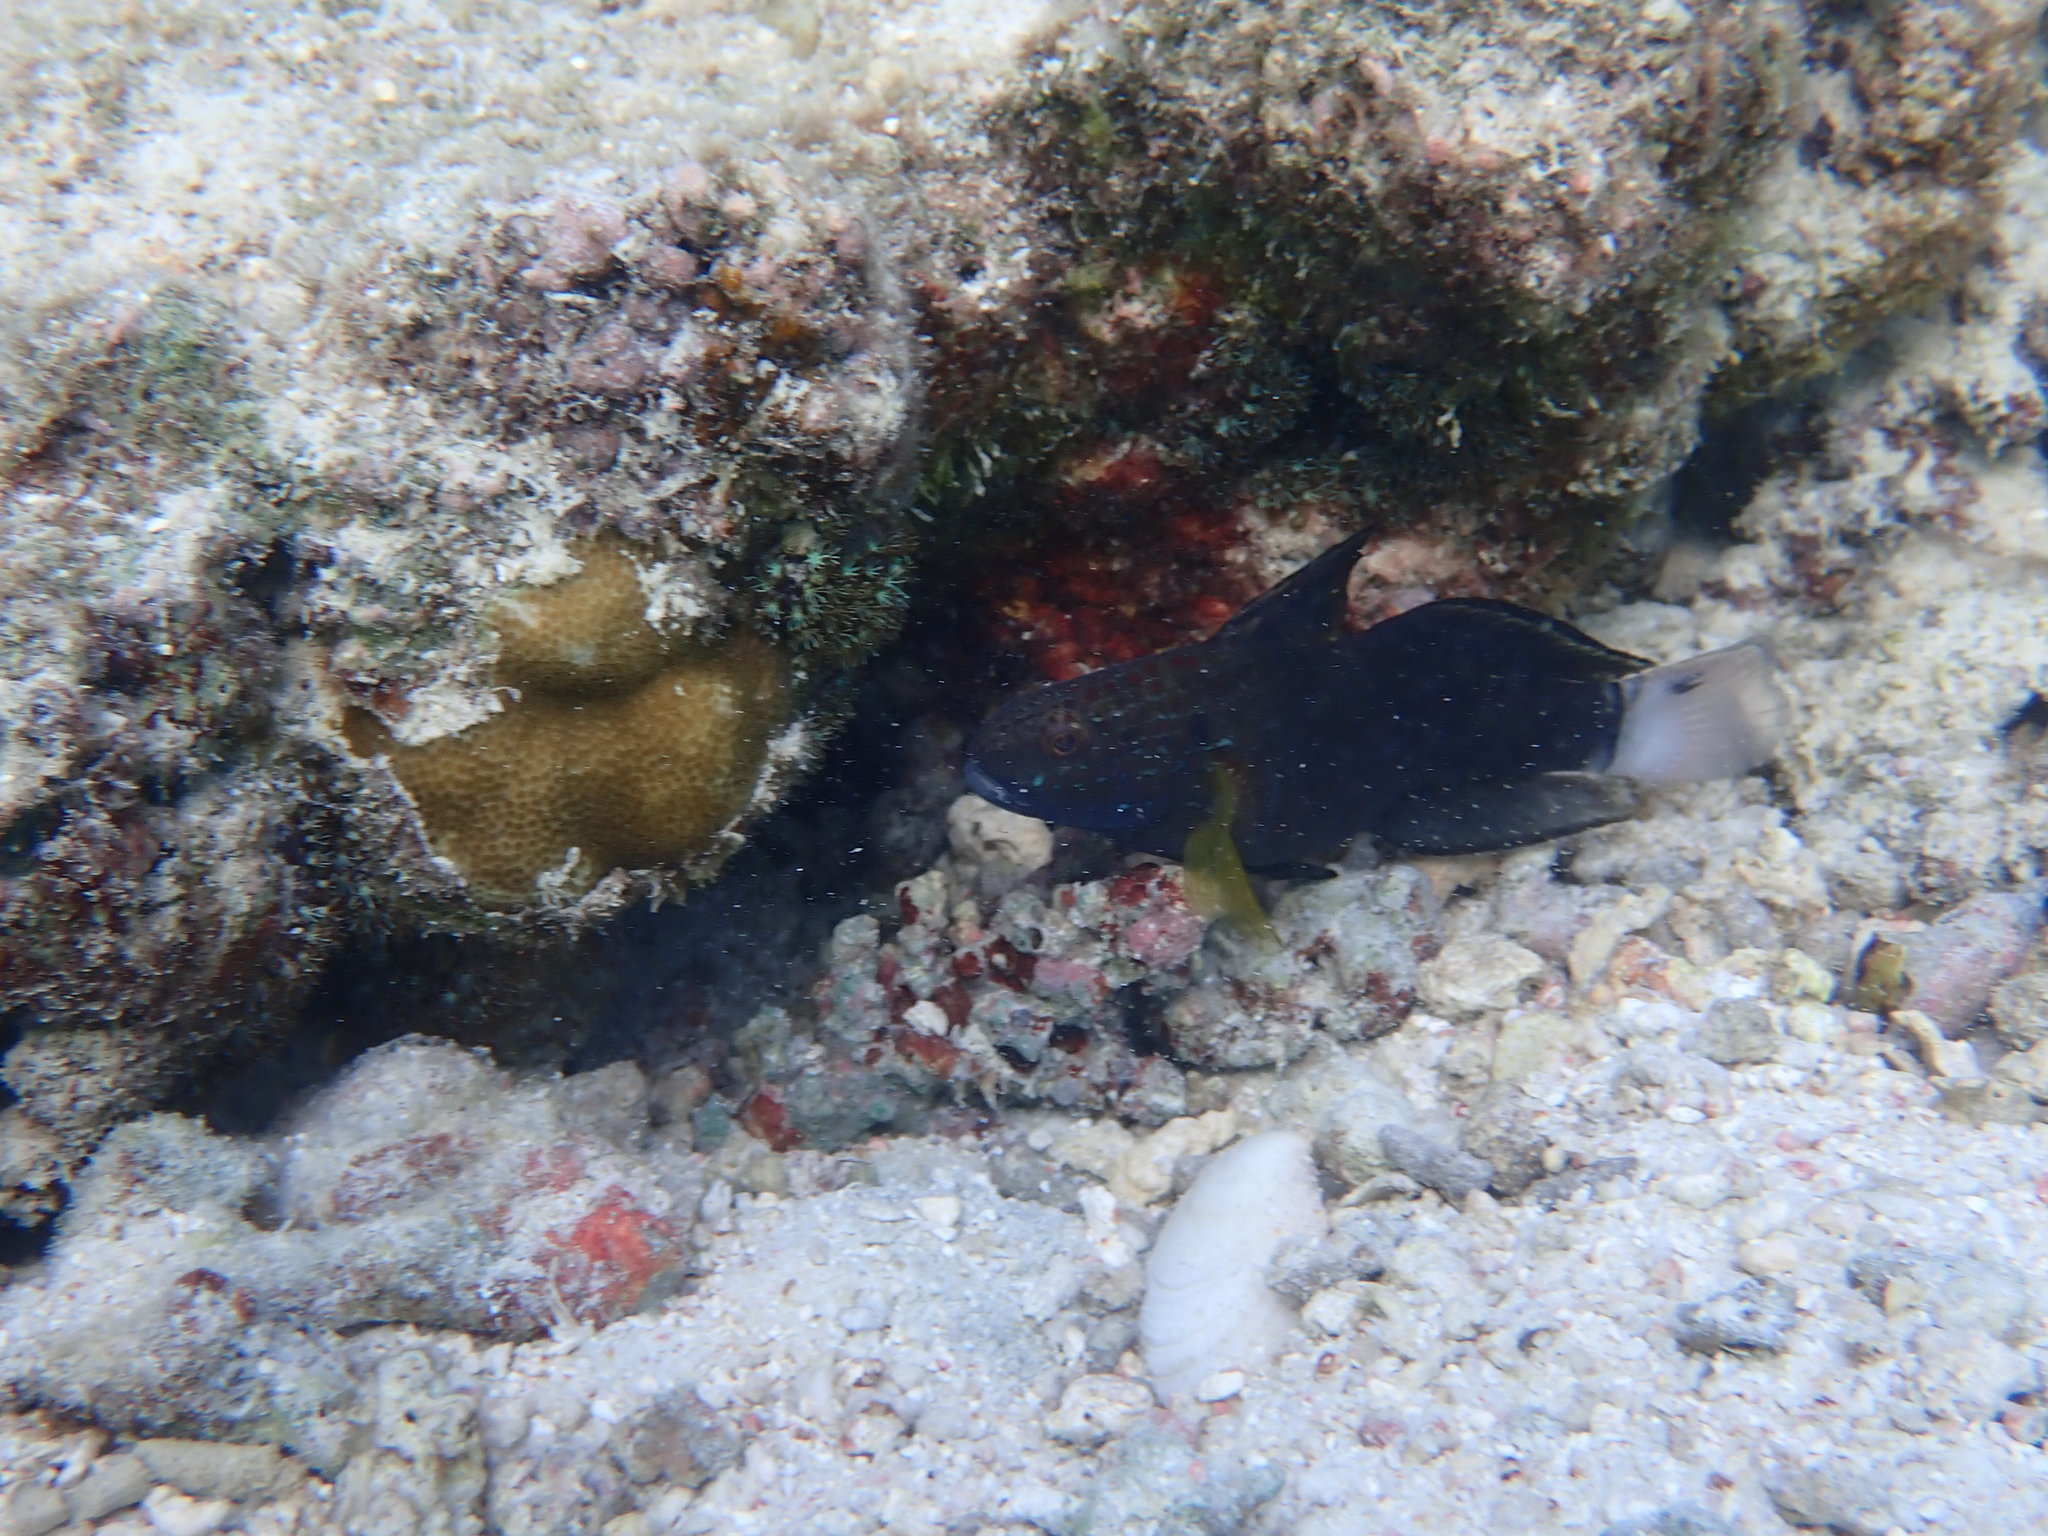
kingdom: Animalia
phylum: Chordata
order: Perciformes
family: Gobiidae
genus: Amblygobius
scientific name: Amblygobius phalaena
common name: Banded goby
